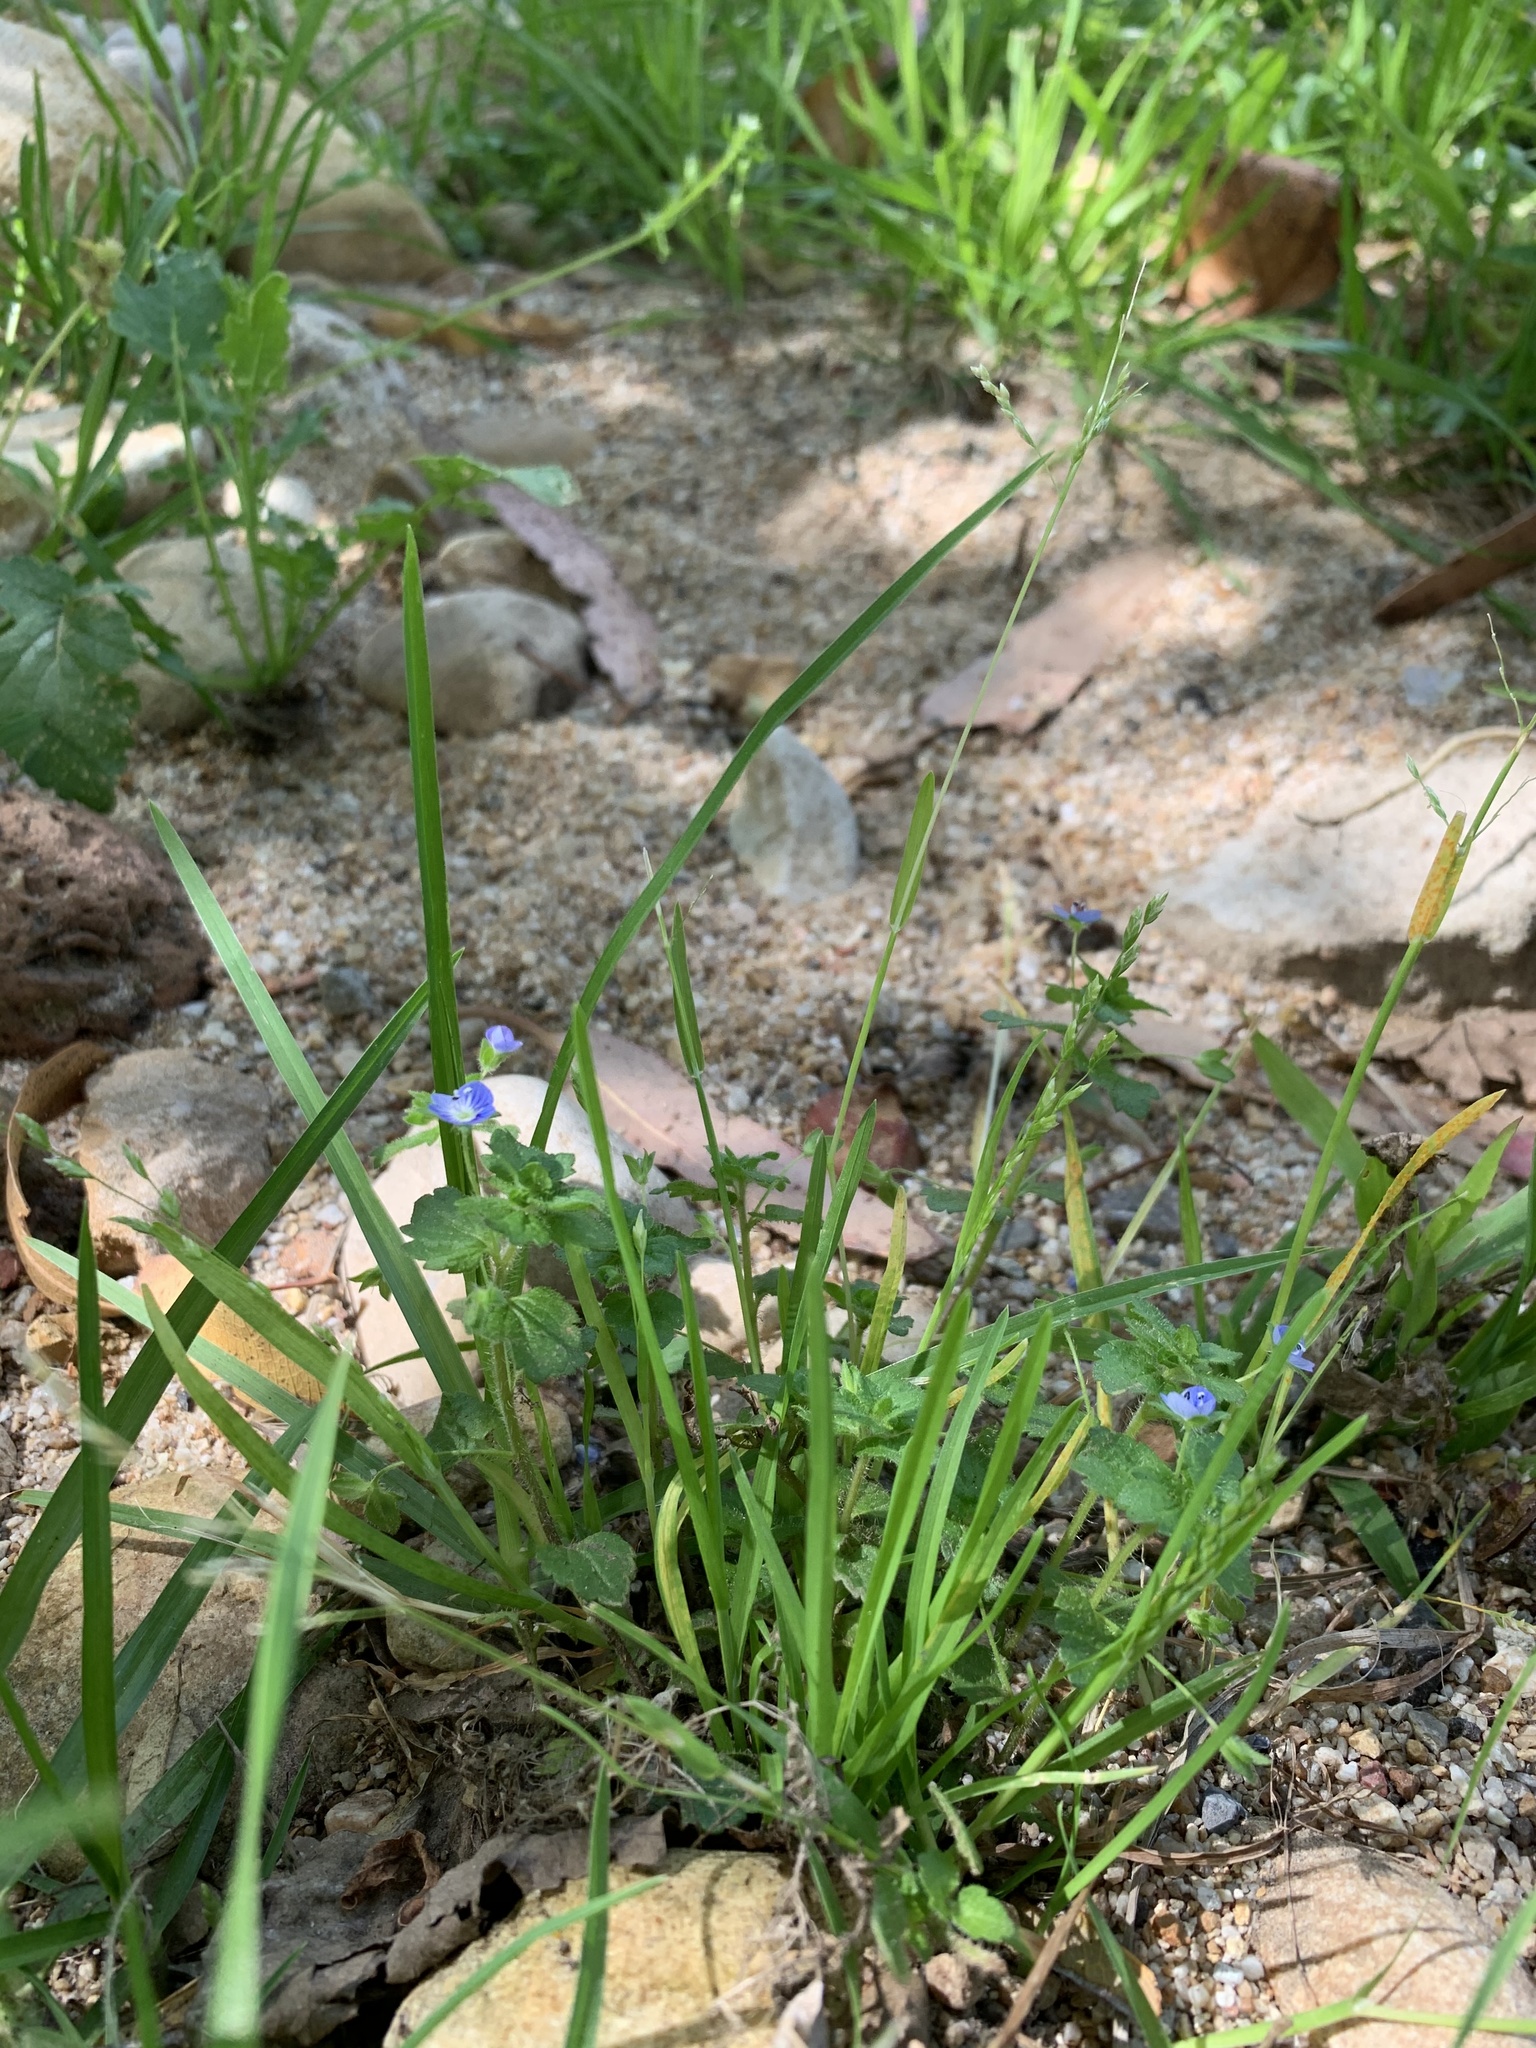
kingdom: Plantae
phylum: Tracheophyta
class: Magnoliopsida
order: Lamiales
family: Plantaginaceae
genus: Veronica
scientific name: Veronica persica
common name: Common field-speedwell
